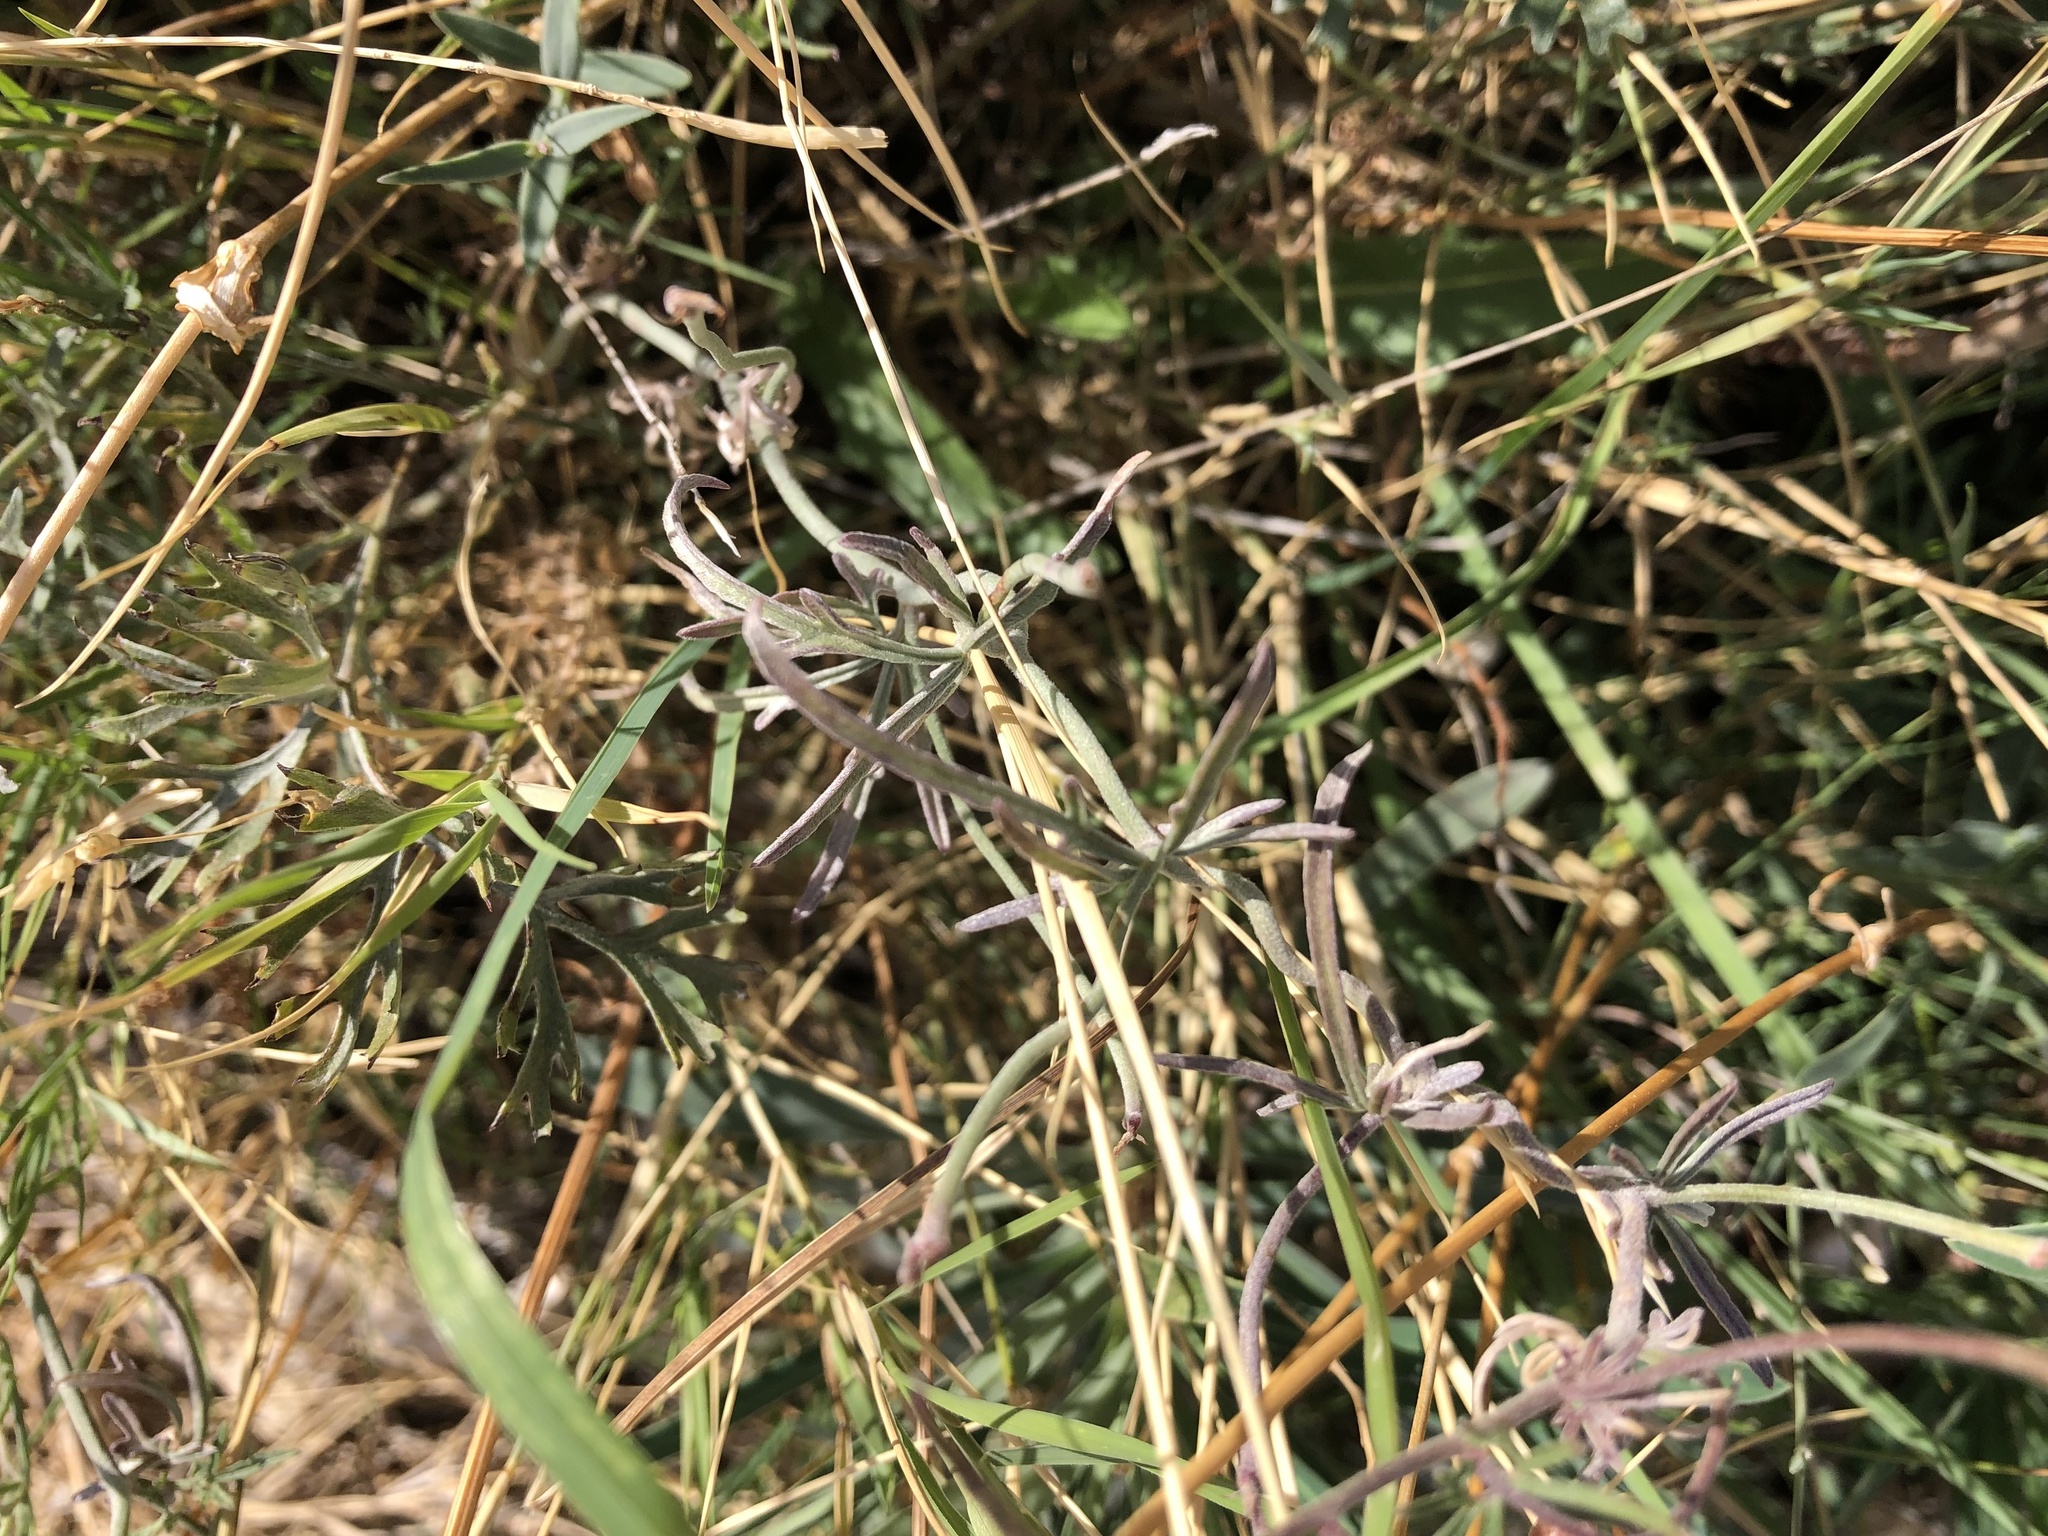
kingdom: Plantae
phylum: Tracheophyta
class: Magnoliopsida
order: Solanales
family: Convolvulaceae
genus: Convolvulus
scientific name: Convolvulus elegantissimus
